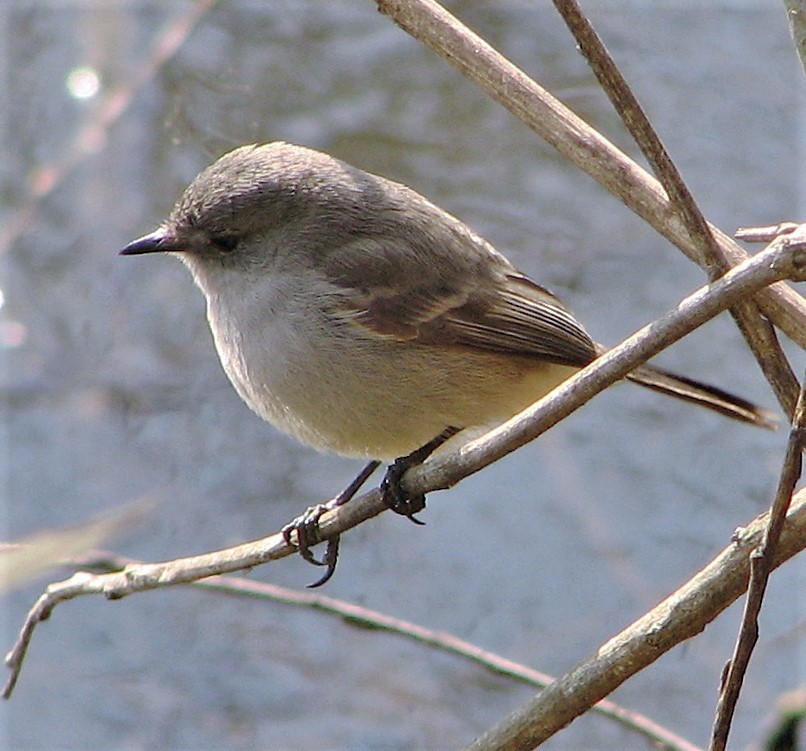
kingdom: Animalia
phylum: Chordata
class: Aves
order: Passeriformes
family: Tyrannidae
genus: Serpophaga
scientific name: Serpophaga nigricans
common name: Sooty tyrannulet
